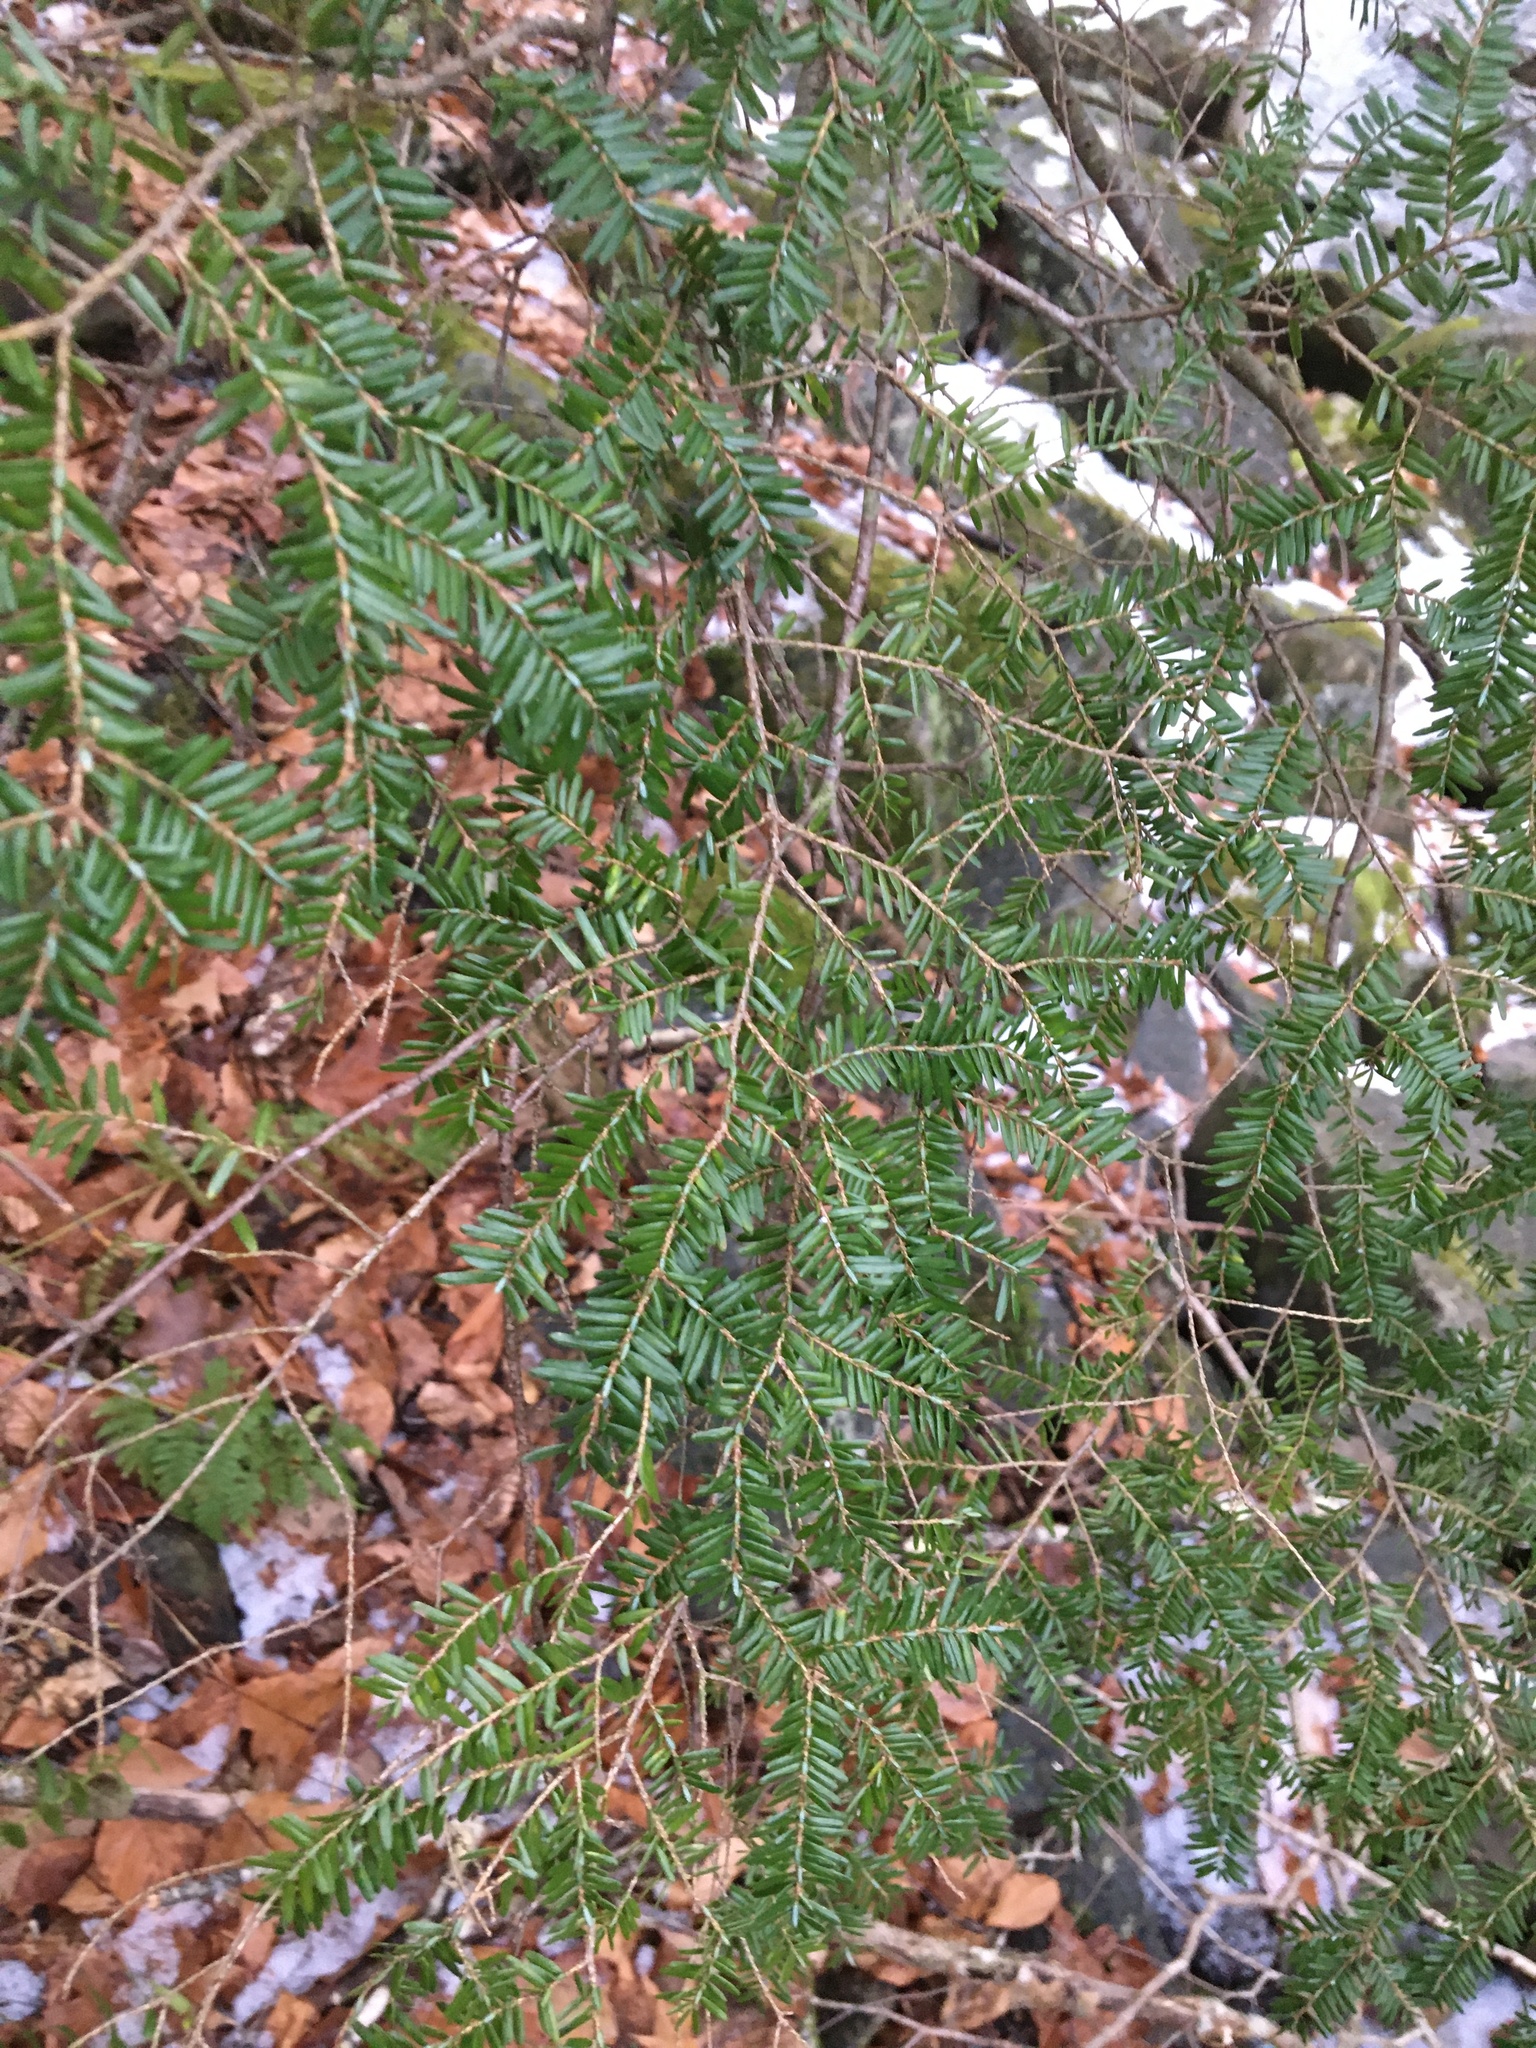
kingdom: Plantae
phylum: Tracheophyta
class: Pinopsida
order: Pinales
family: Pinaceae
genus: Tsuga
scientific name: Tsuga canadensis
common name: Eastern hemlock
